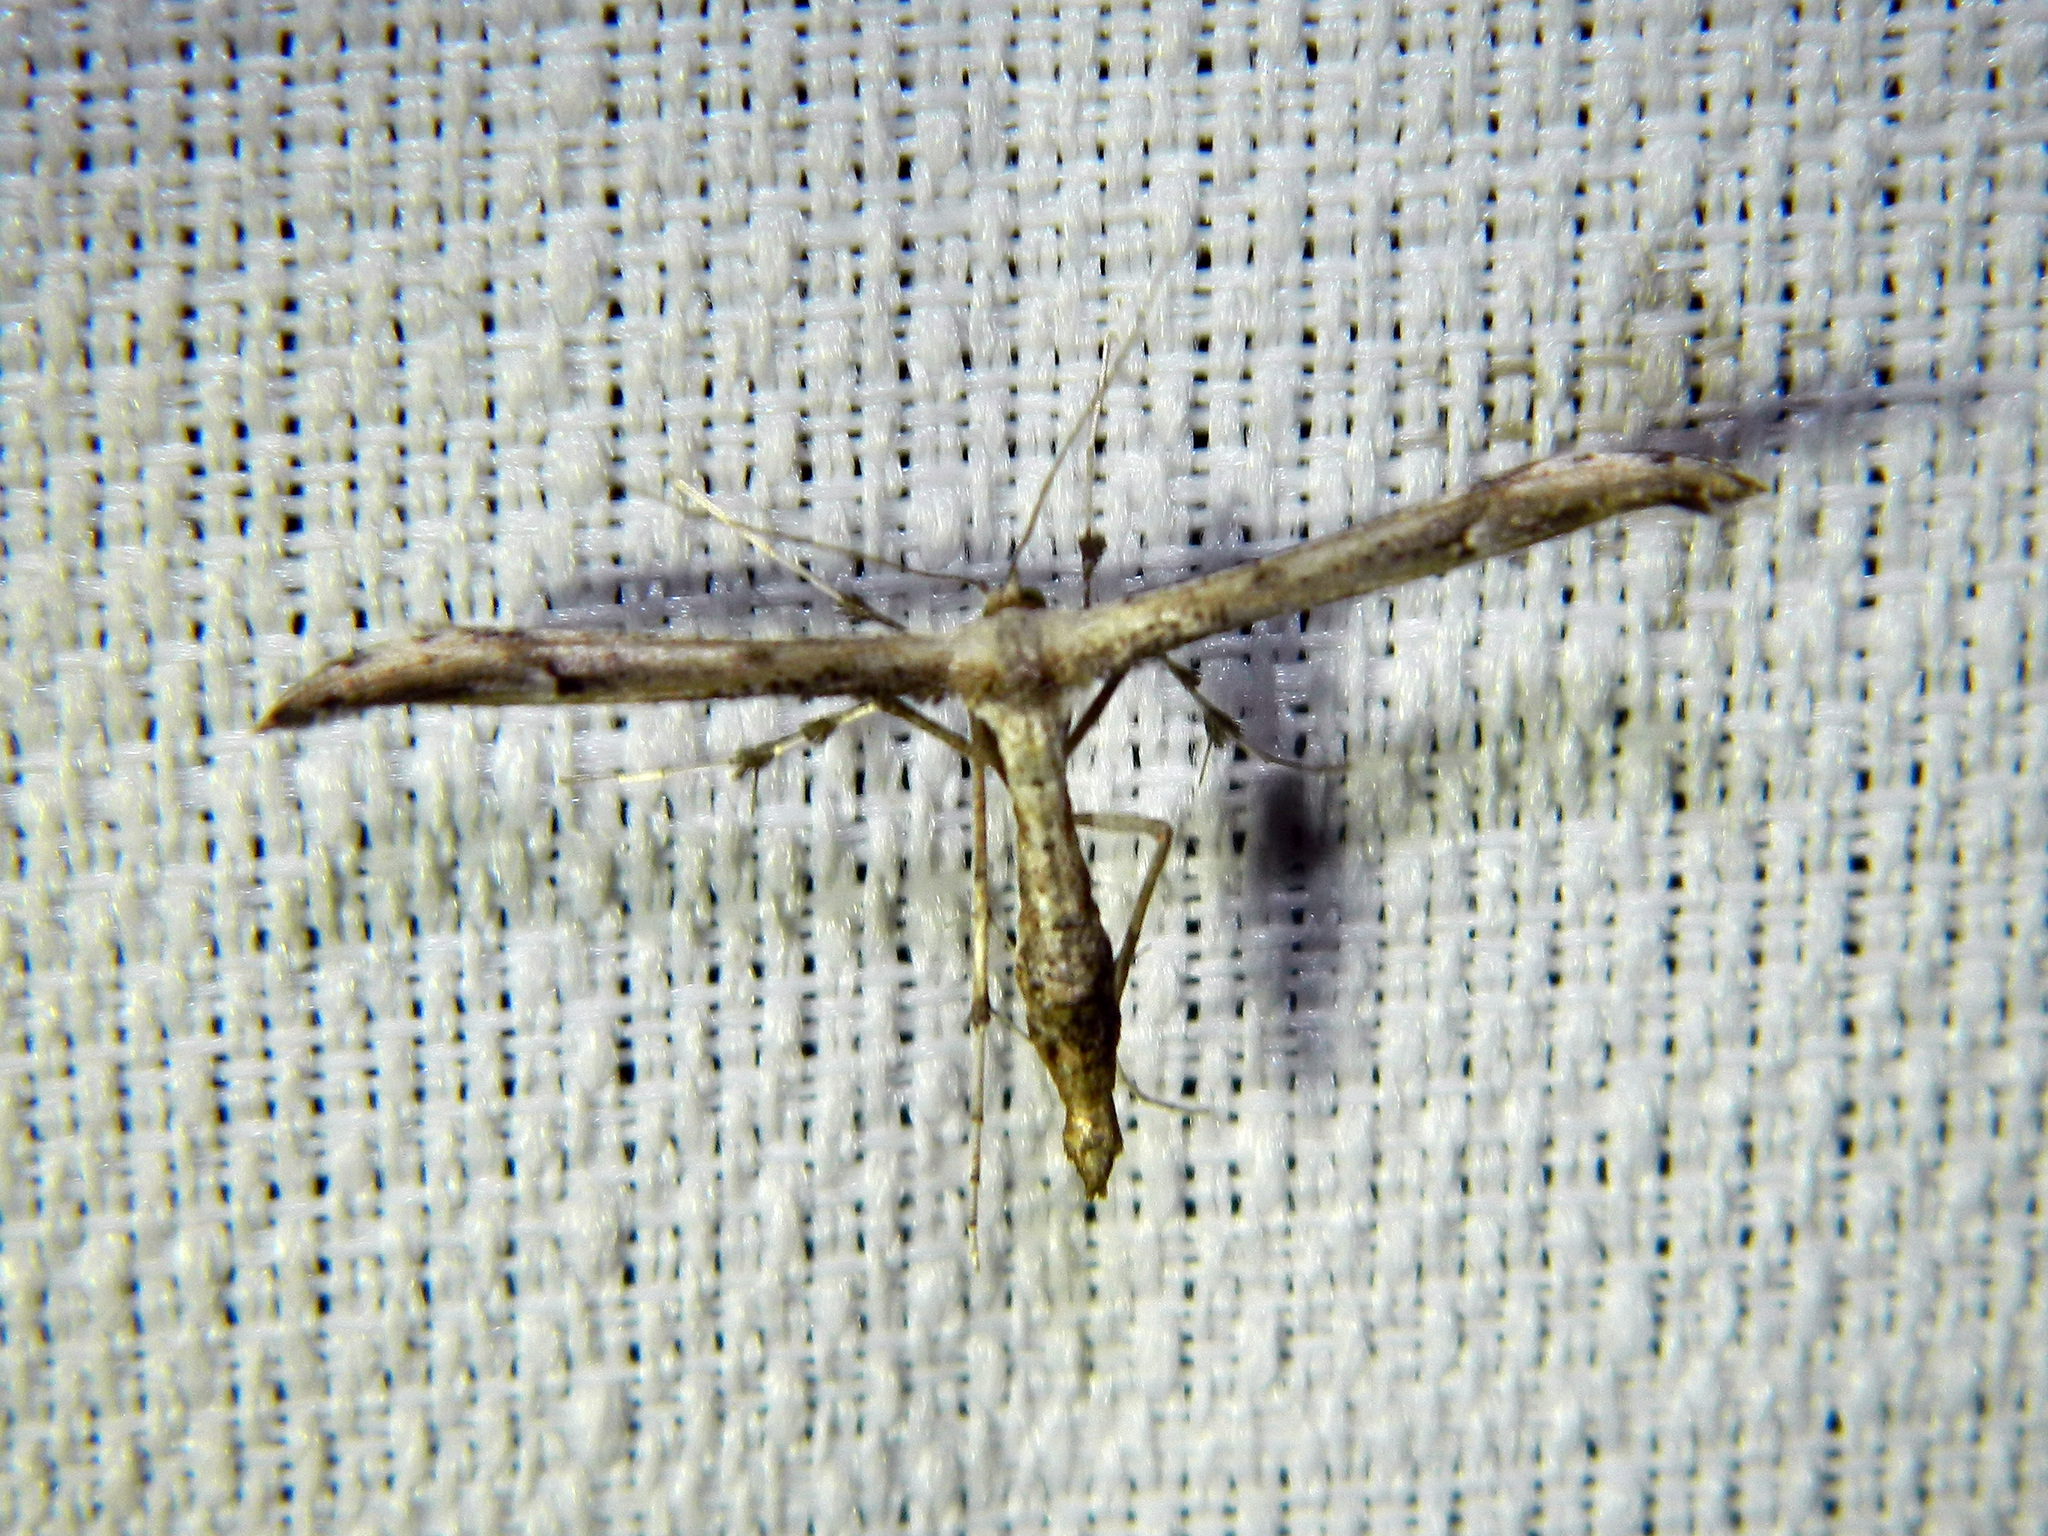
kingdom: Animalia
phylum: Arthropoda
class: Insecta
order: Lepidoptera
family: Pterophoridae
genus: Oidaematophorus
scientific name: Oidaematophorus eupatorii
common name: Eupatorium plume moth
